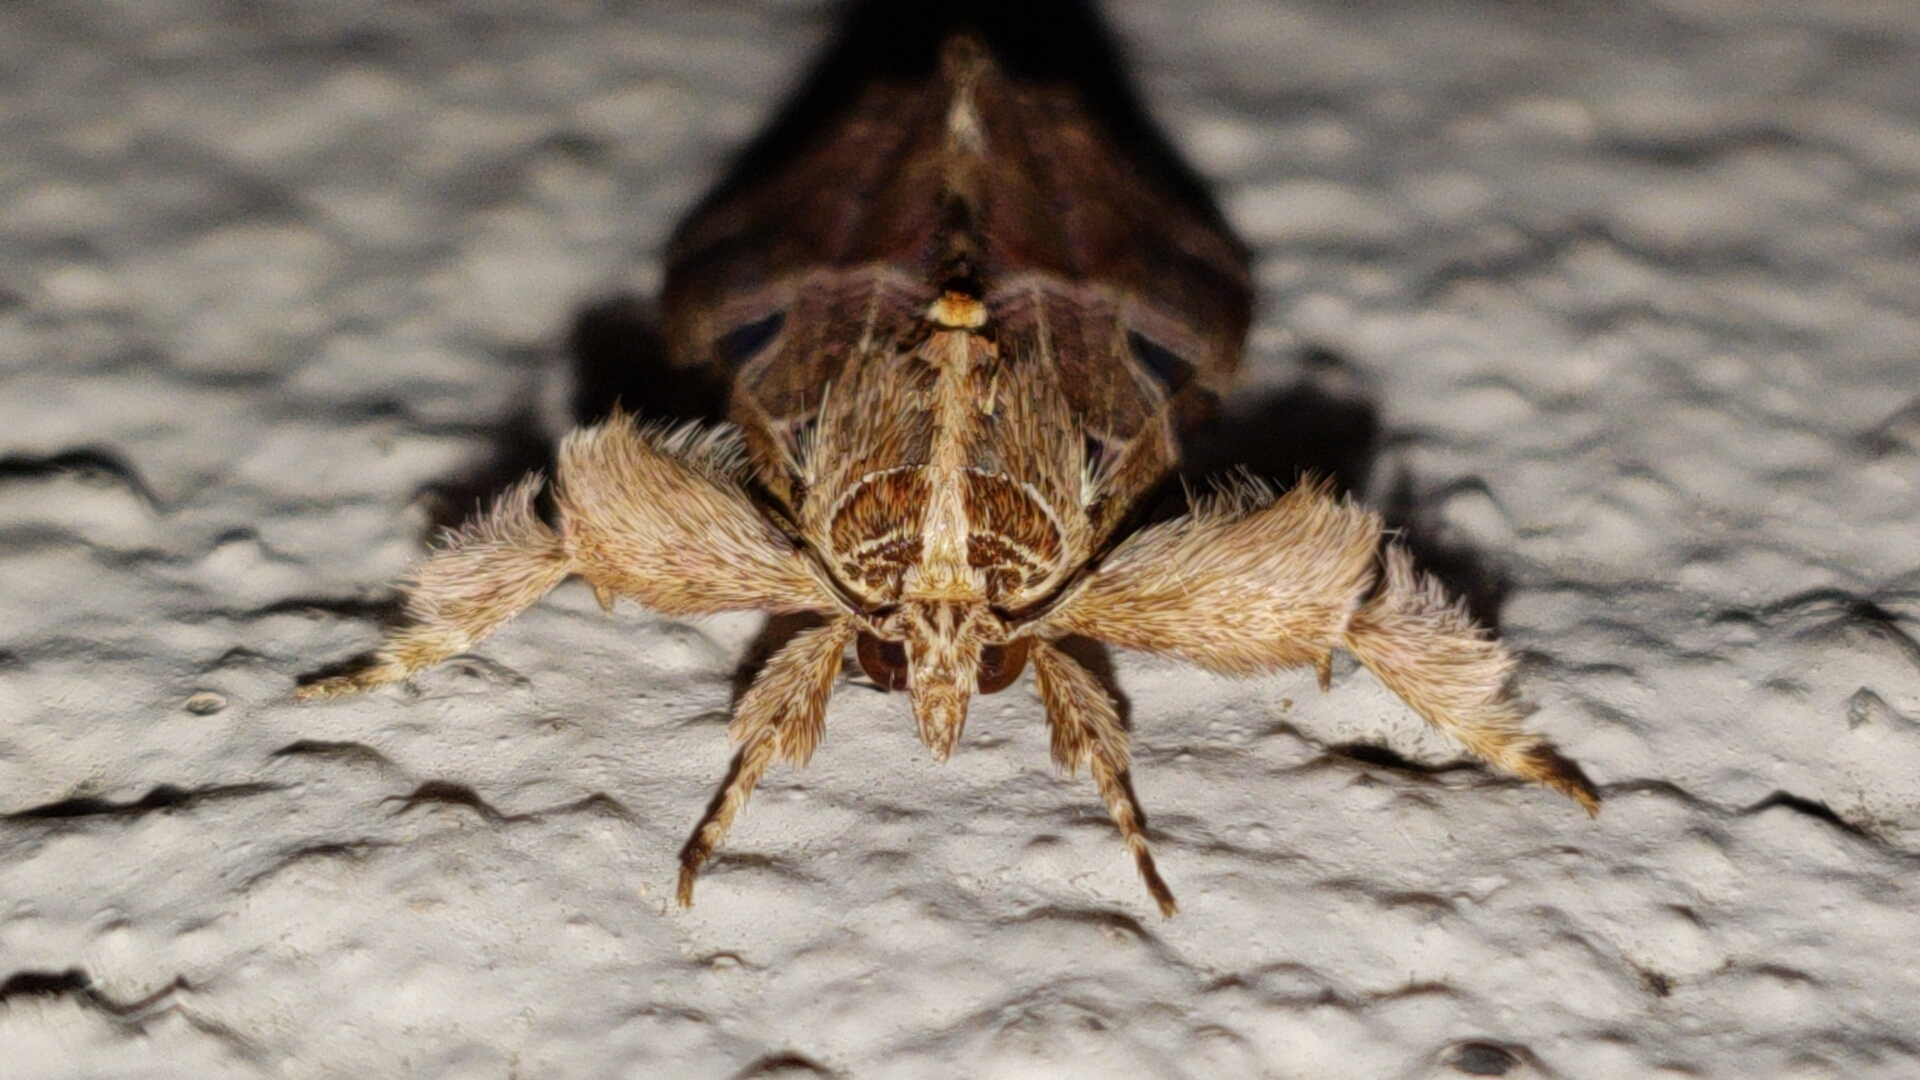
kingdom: Animalia
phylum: Arthropoda
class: Insecta
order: Lepidoptera
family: Noctuidae
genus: Callopistria
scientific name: Callopistria floridensis
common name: Florida fern moth
